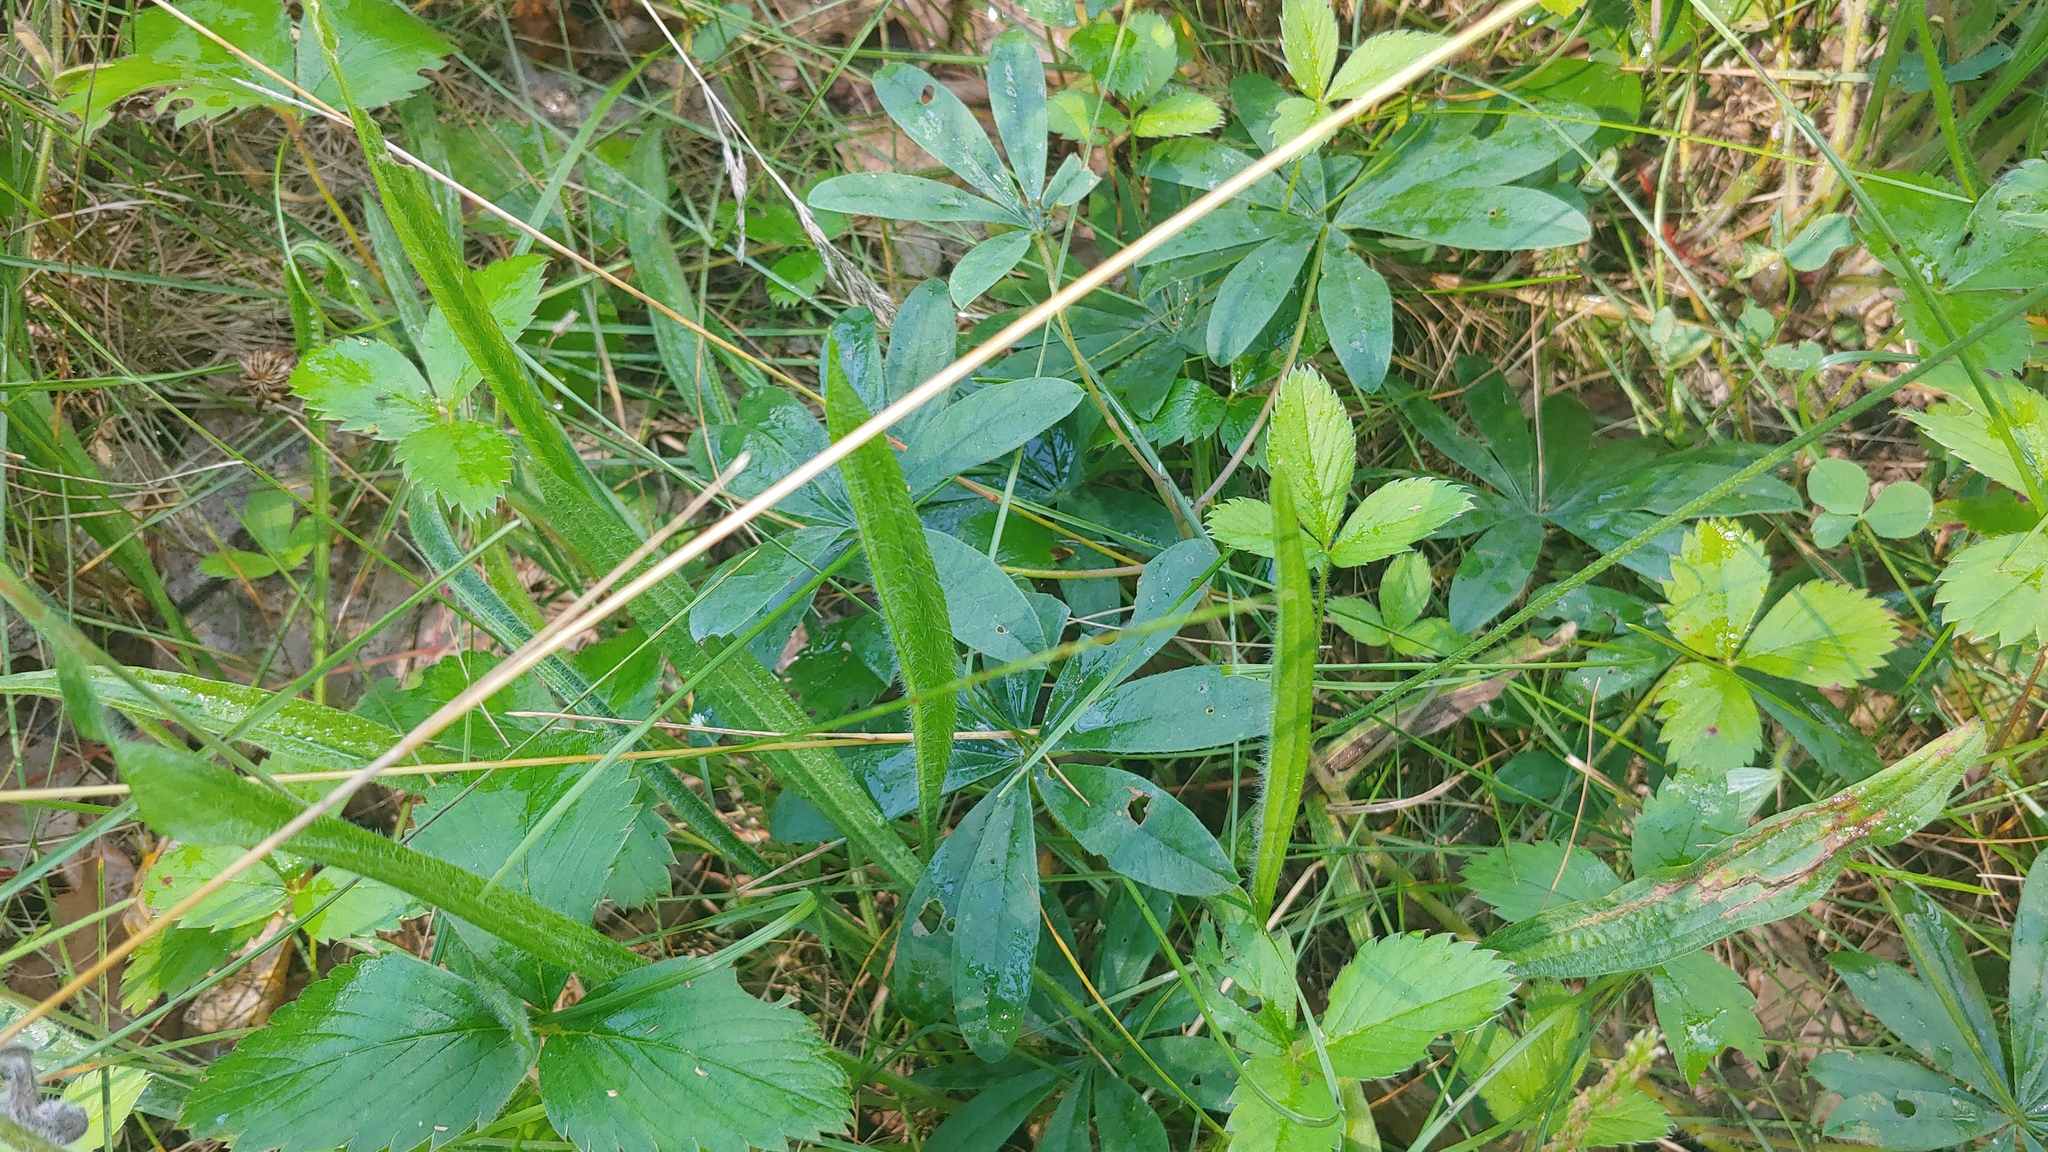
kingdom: Plantae
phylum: Tracheophyta
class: Magnoliopsida
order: Fabales
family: Fabaceae
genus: Lupinus
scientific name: Lupinus perennis
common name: Sundial lupine
